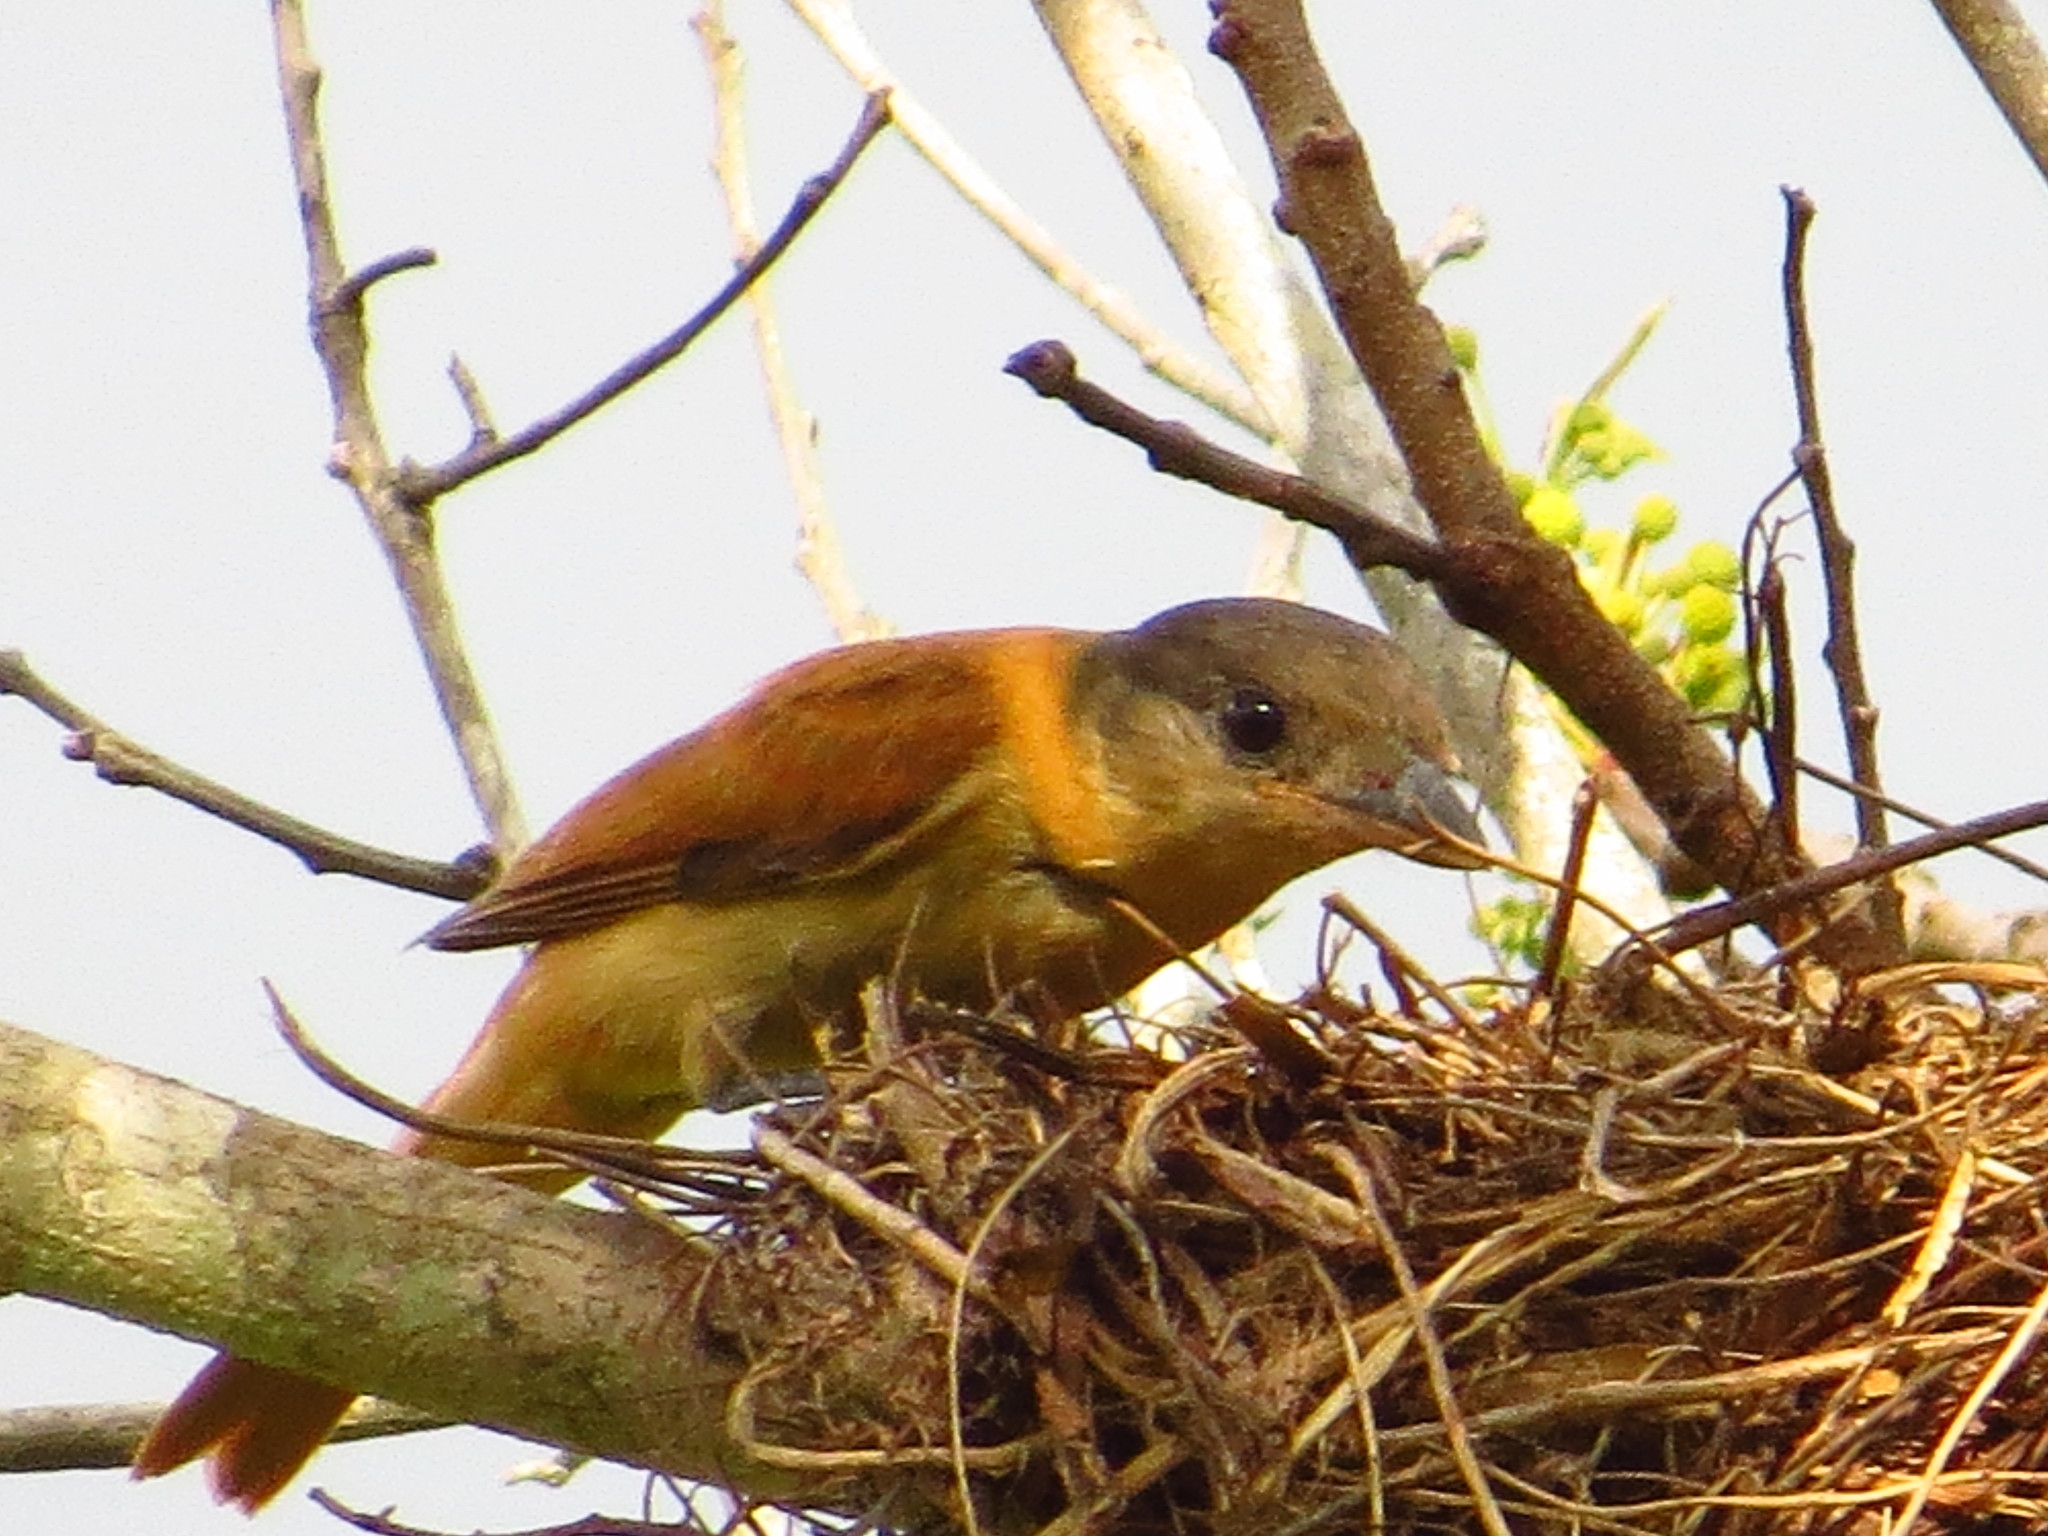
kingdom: Animalia
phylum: Chordata
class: Aves
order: Passeriformes
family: Cotingidae
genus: Pachyramphus
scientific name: Pachyramphus validus
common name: Crested becard
